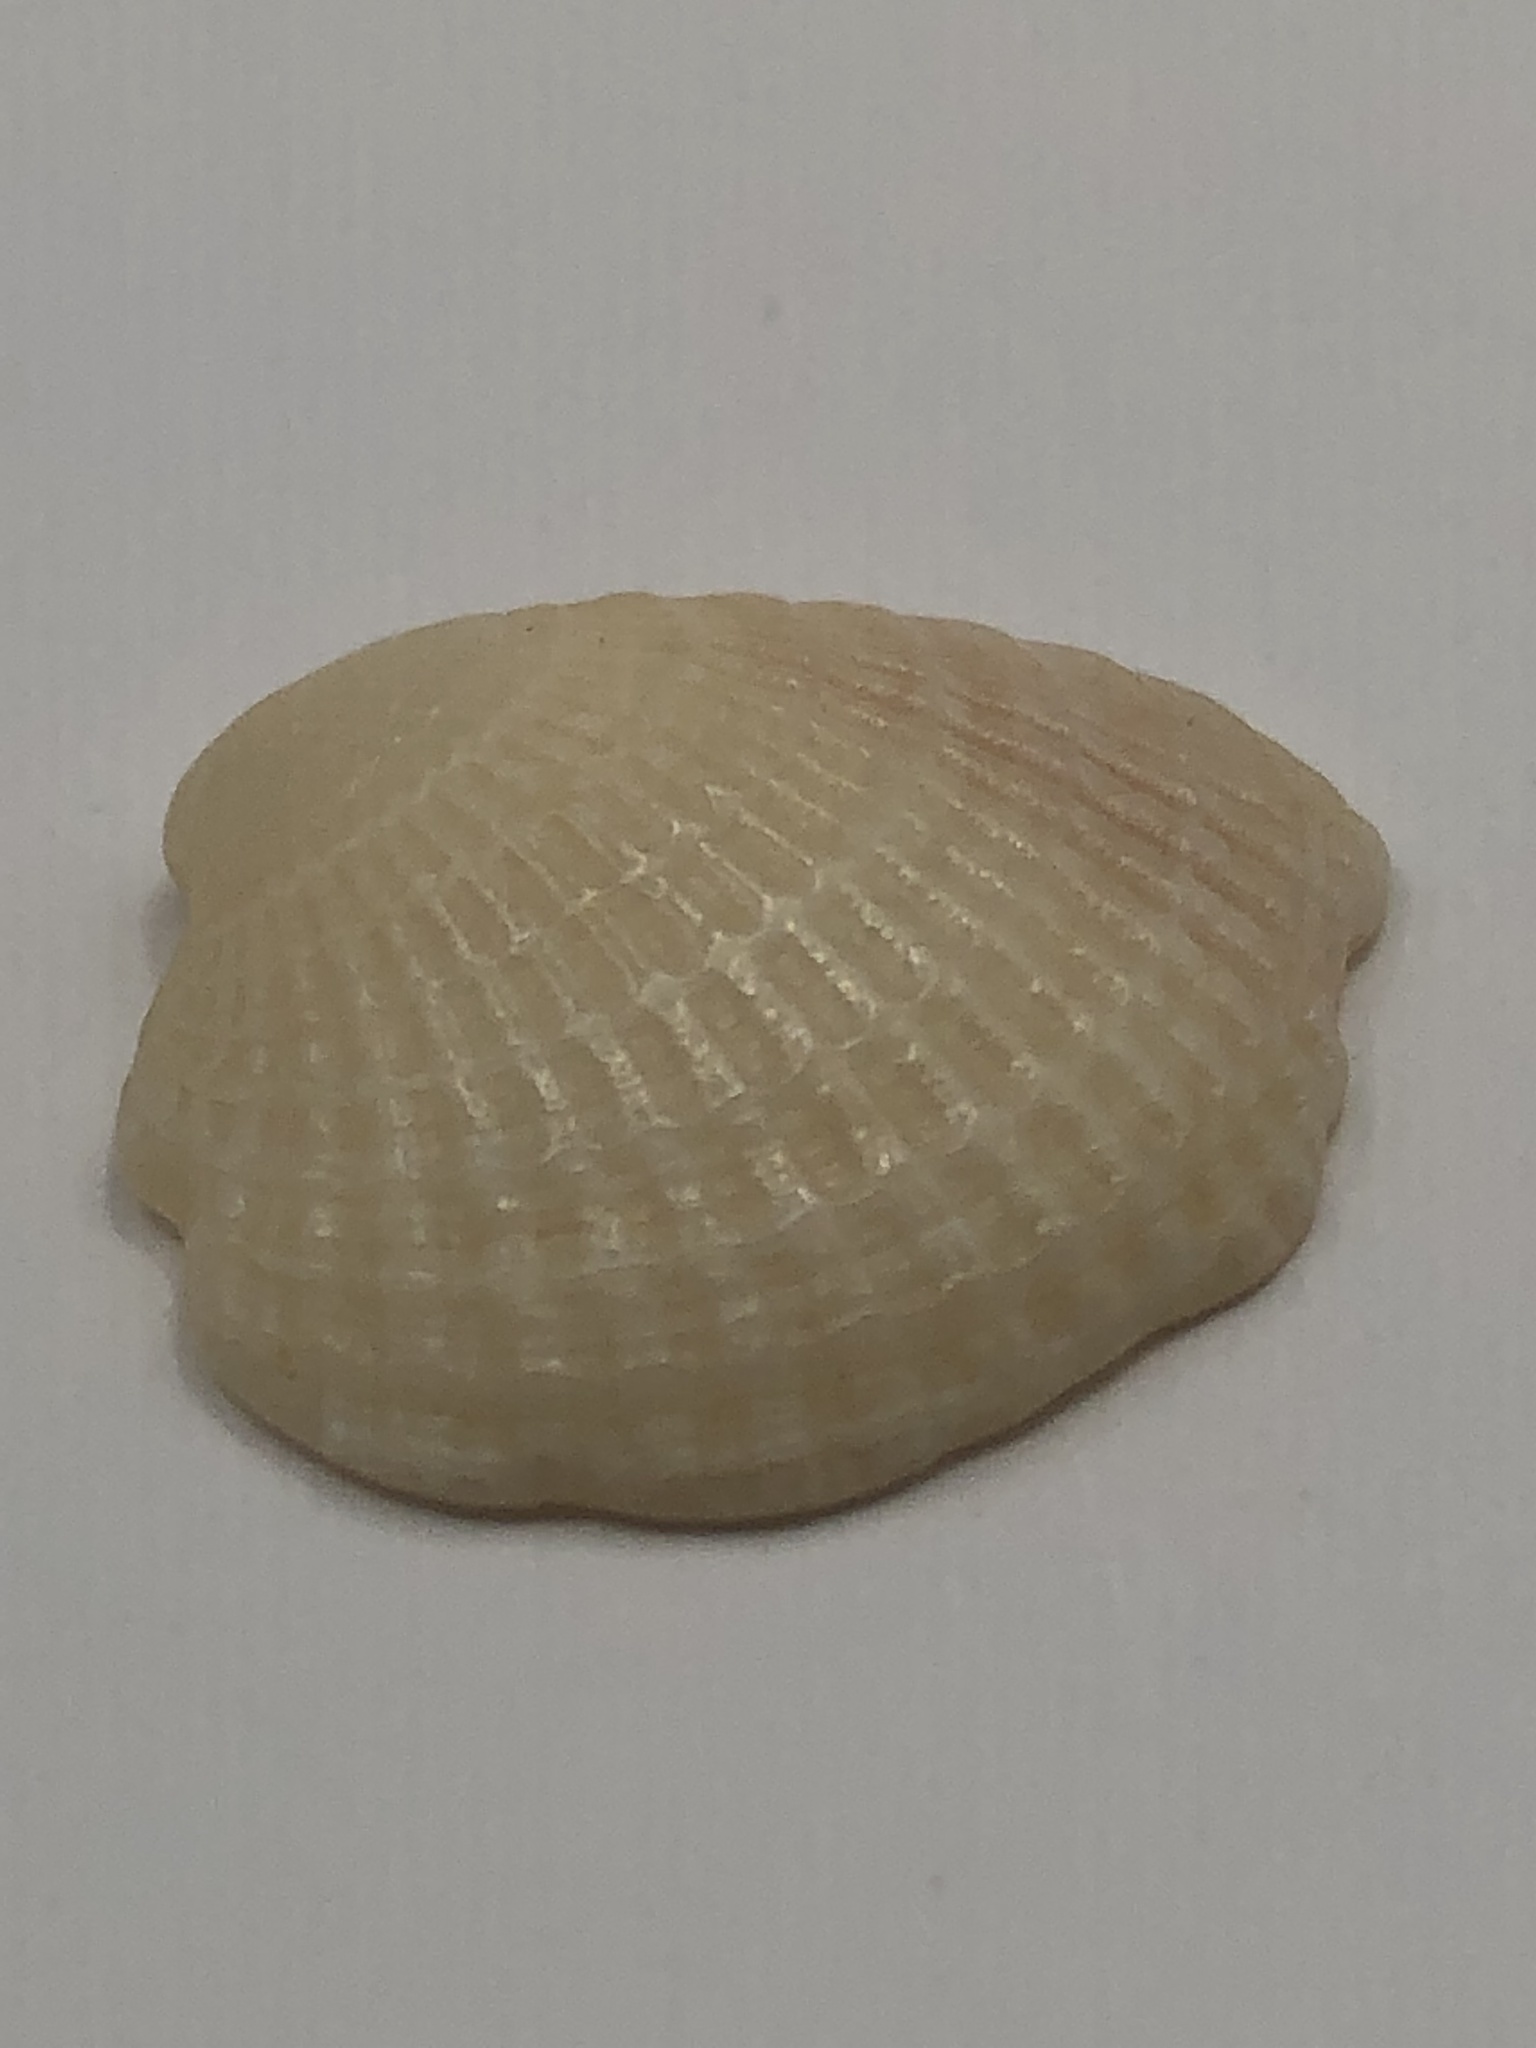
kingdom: Animalia
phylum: Mollusca
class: Bivalvia
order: Venerida
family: Veneridae
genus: Chione
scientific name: Chione elevata
